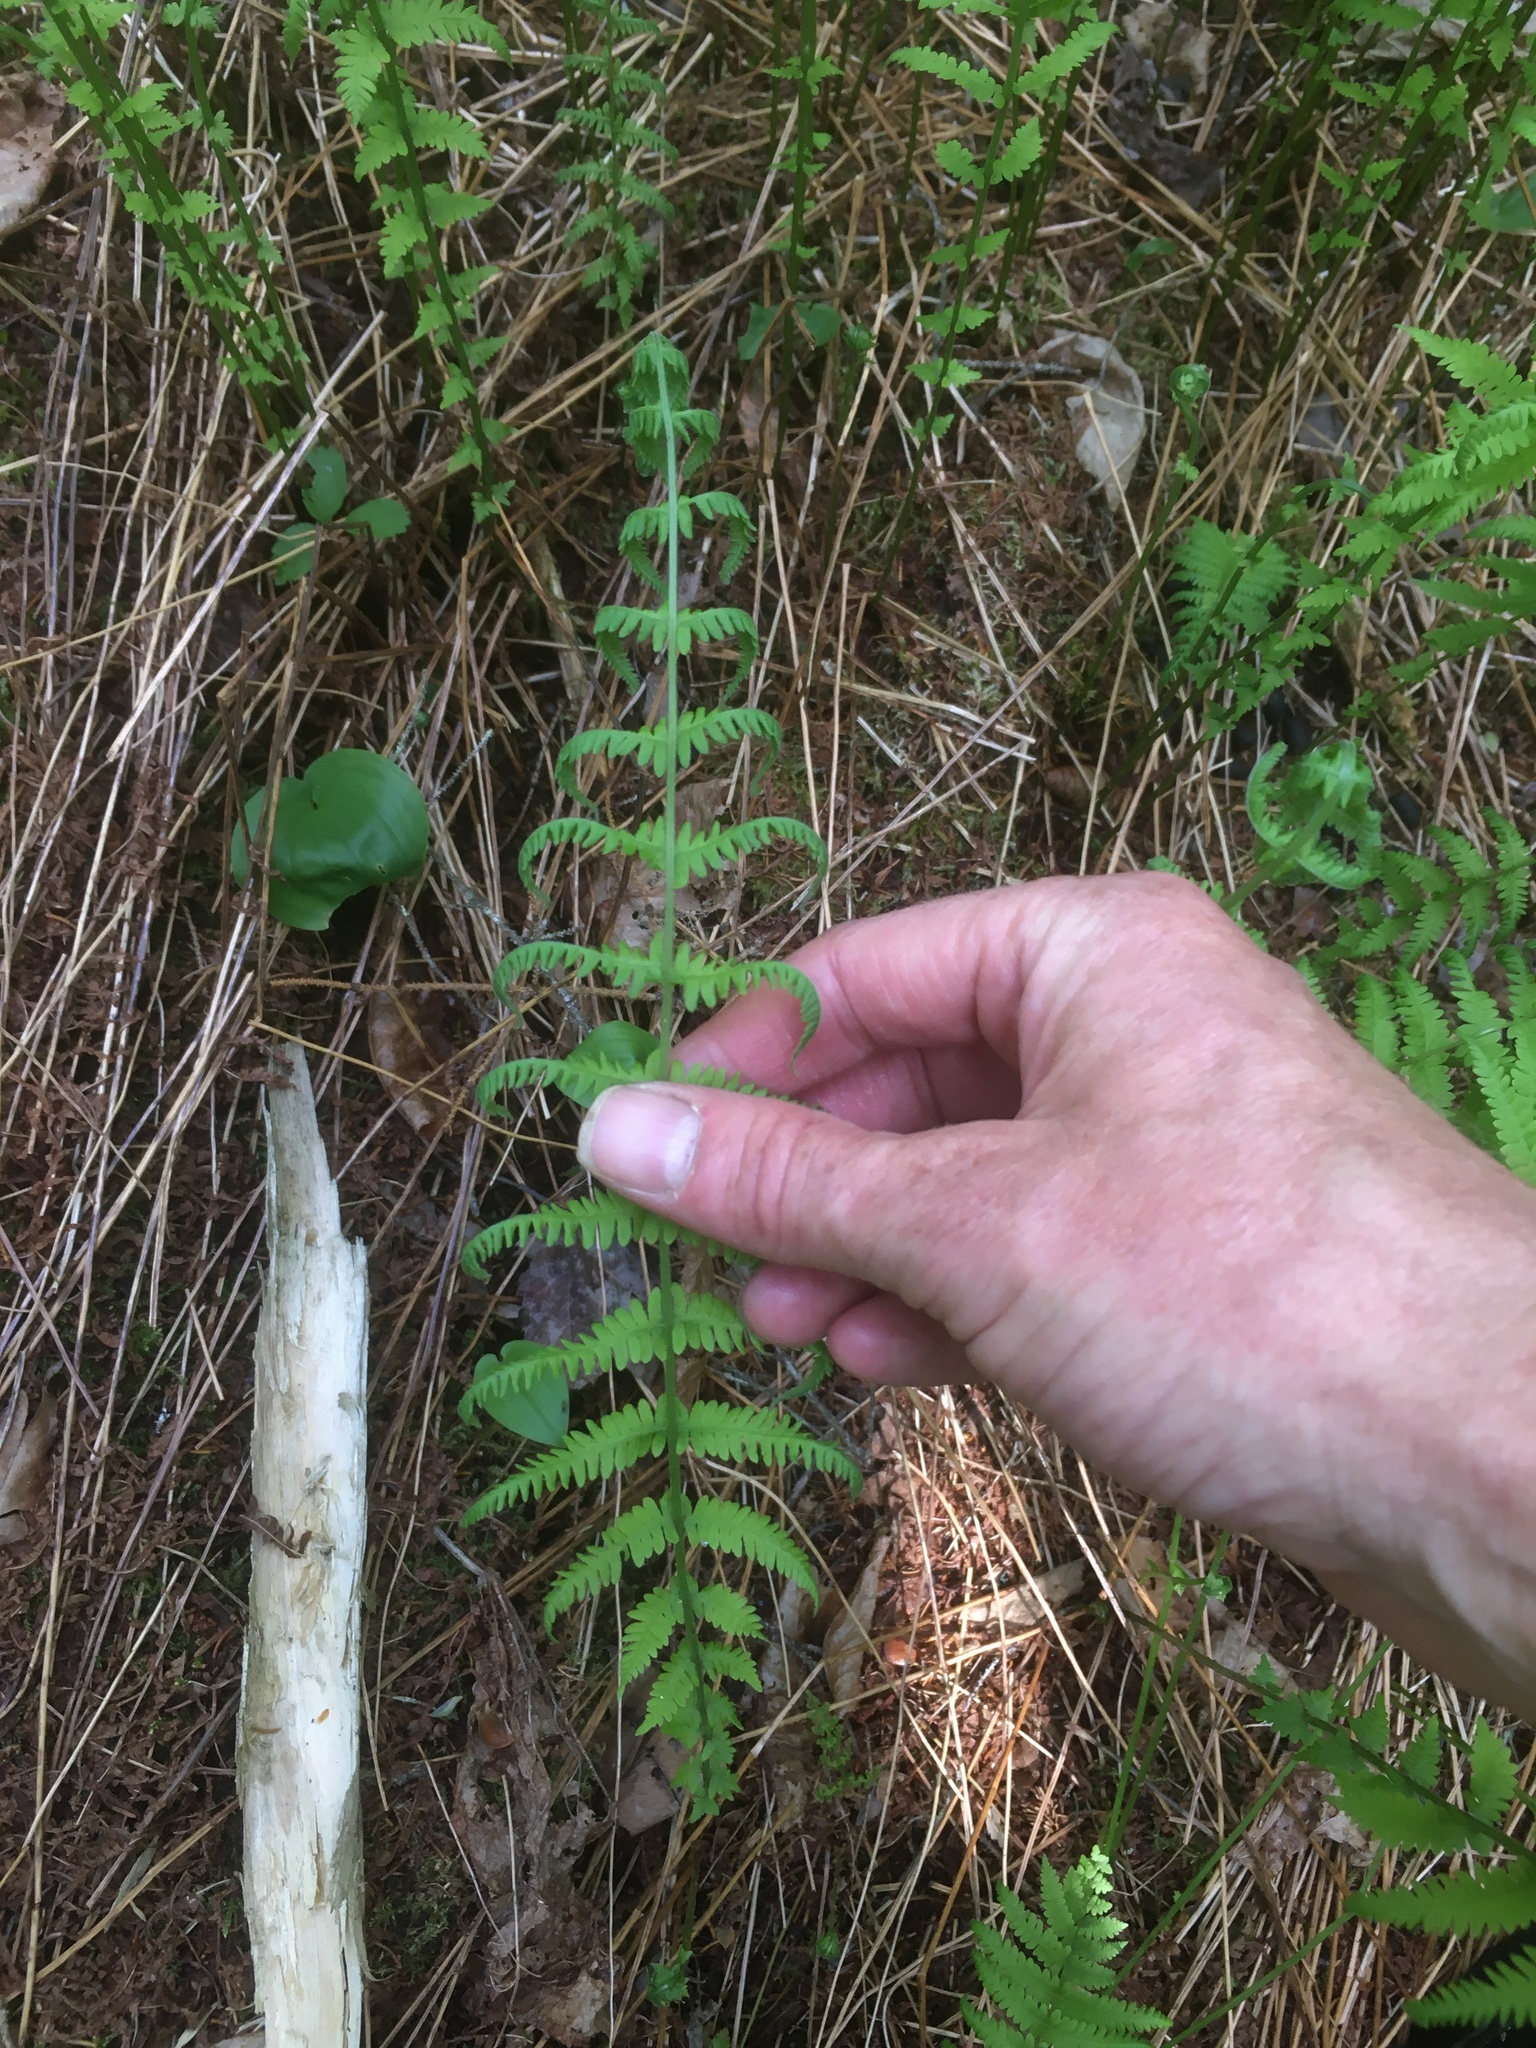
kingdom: Plantae
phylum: Tracheophyta
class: Polypodiopsida
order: Polypodiales
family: Thelypteridaceae
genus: Amauropelta
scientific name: Amauropelta noveboracensis
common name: New york fern
